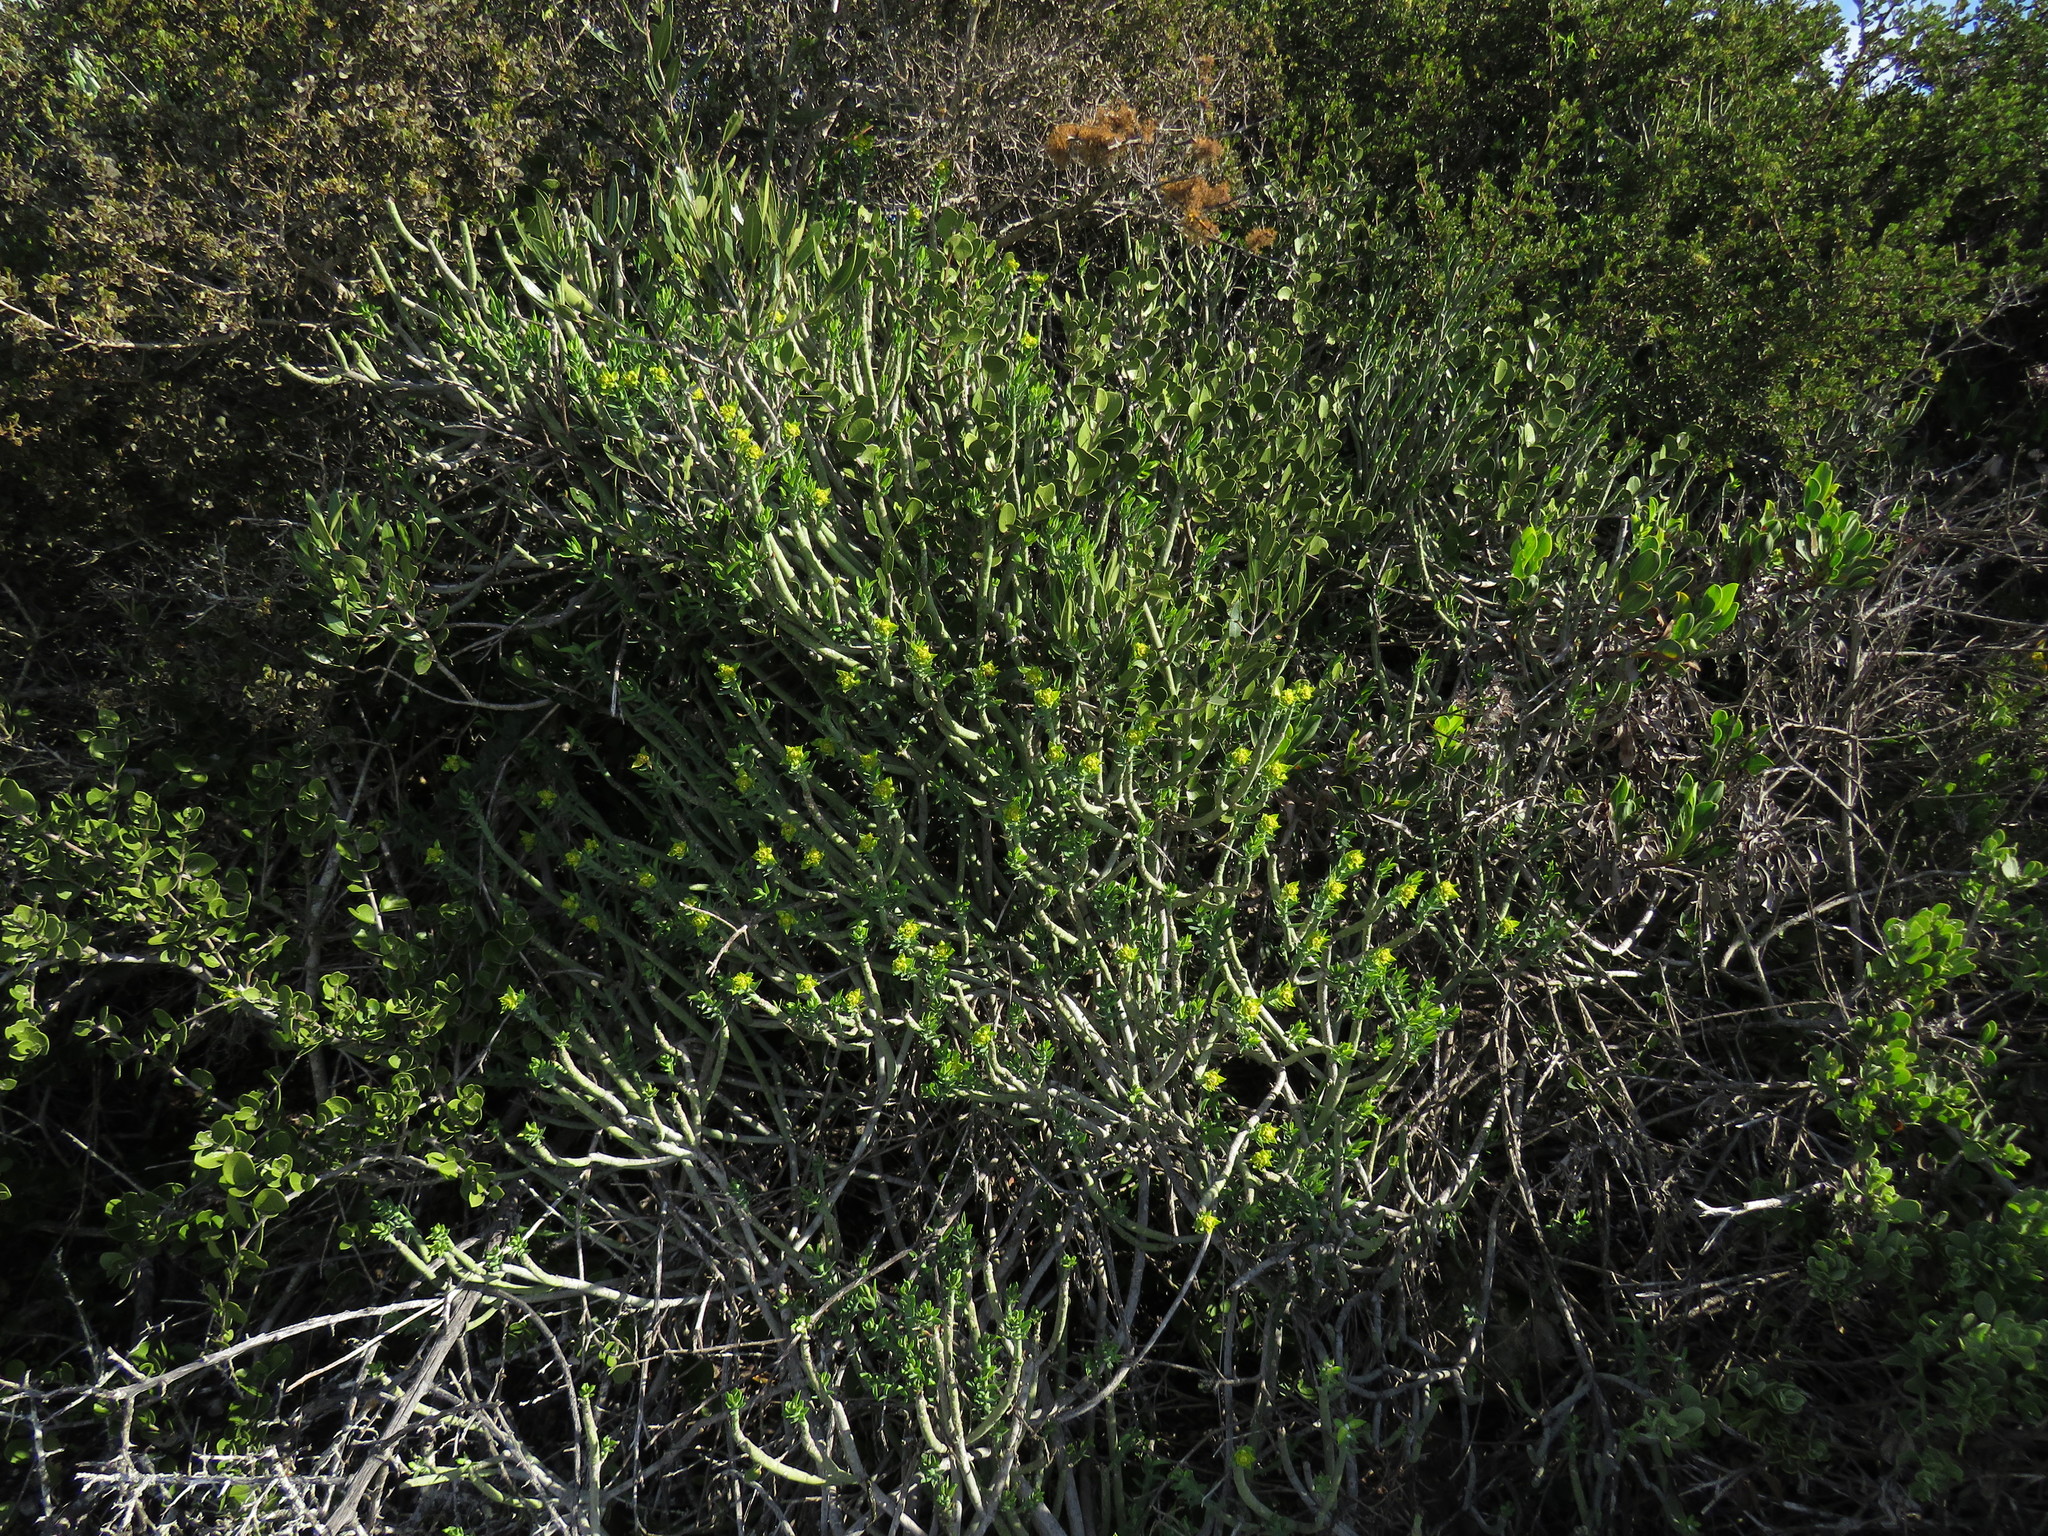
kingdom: Plantae
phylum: Tracheophyta
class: Magnoliopsida
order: Malpighiales
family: Euphorbiaceae
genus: Euphorbia
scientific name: Euphorbia mauritanica
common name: Jackal's-food
